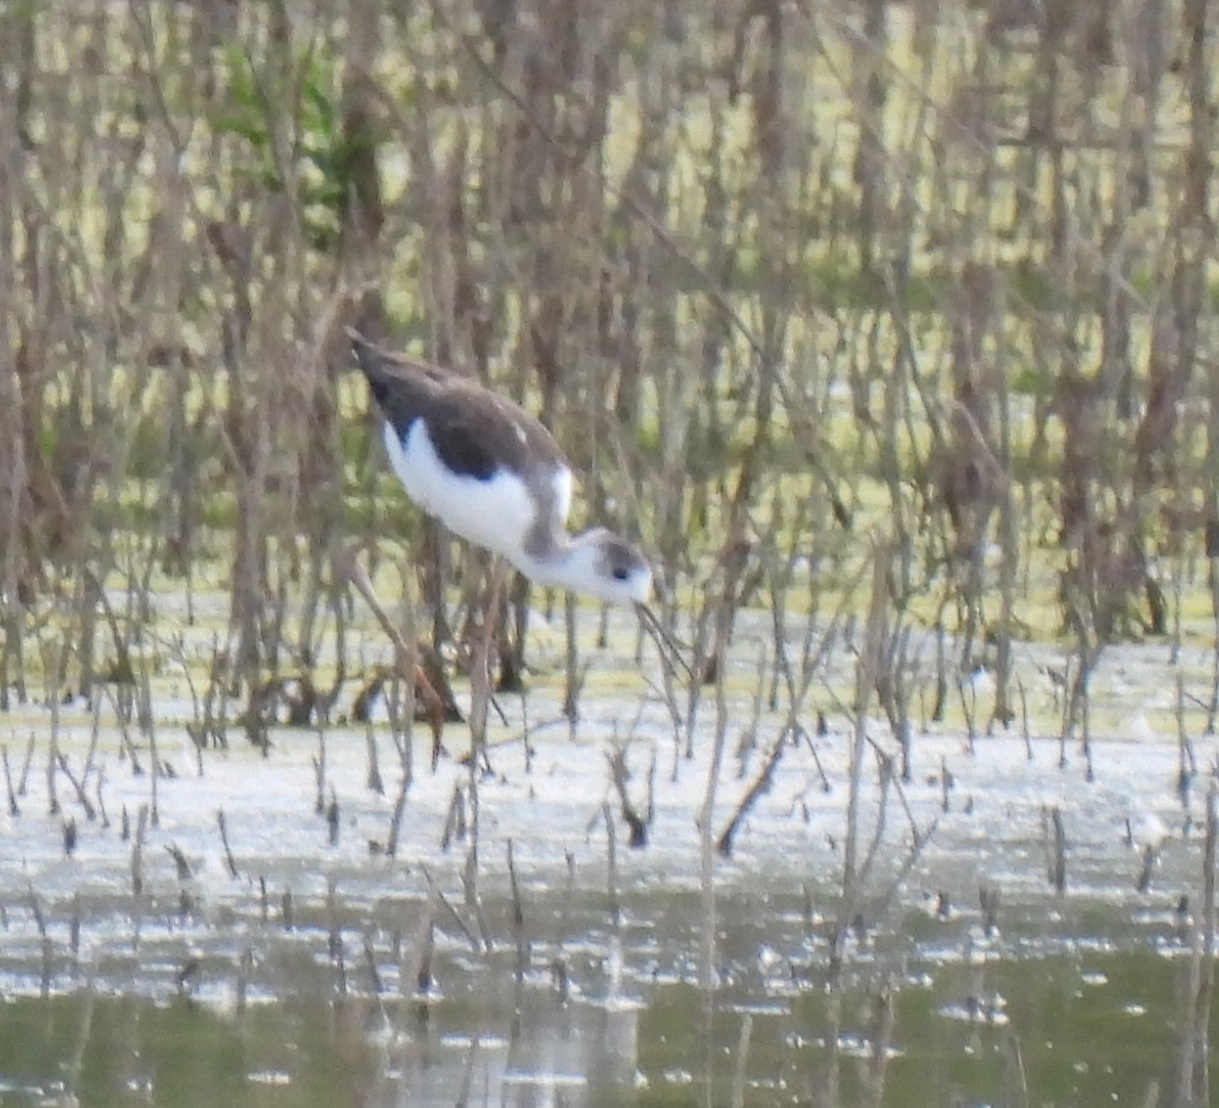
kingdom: Animalia
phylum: Chordata
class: Aves
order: Charadriiformes
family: Recurvirostridae
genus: Himantopus
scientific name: Himantopus himantopus
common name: Black-winged stilt
